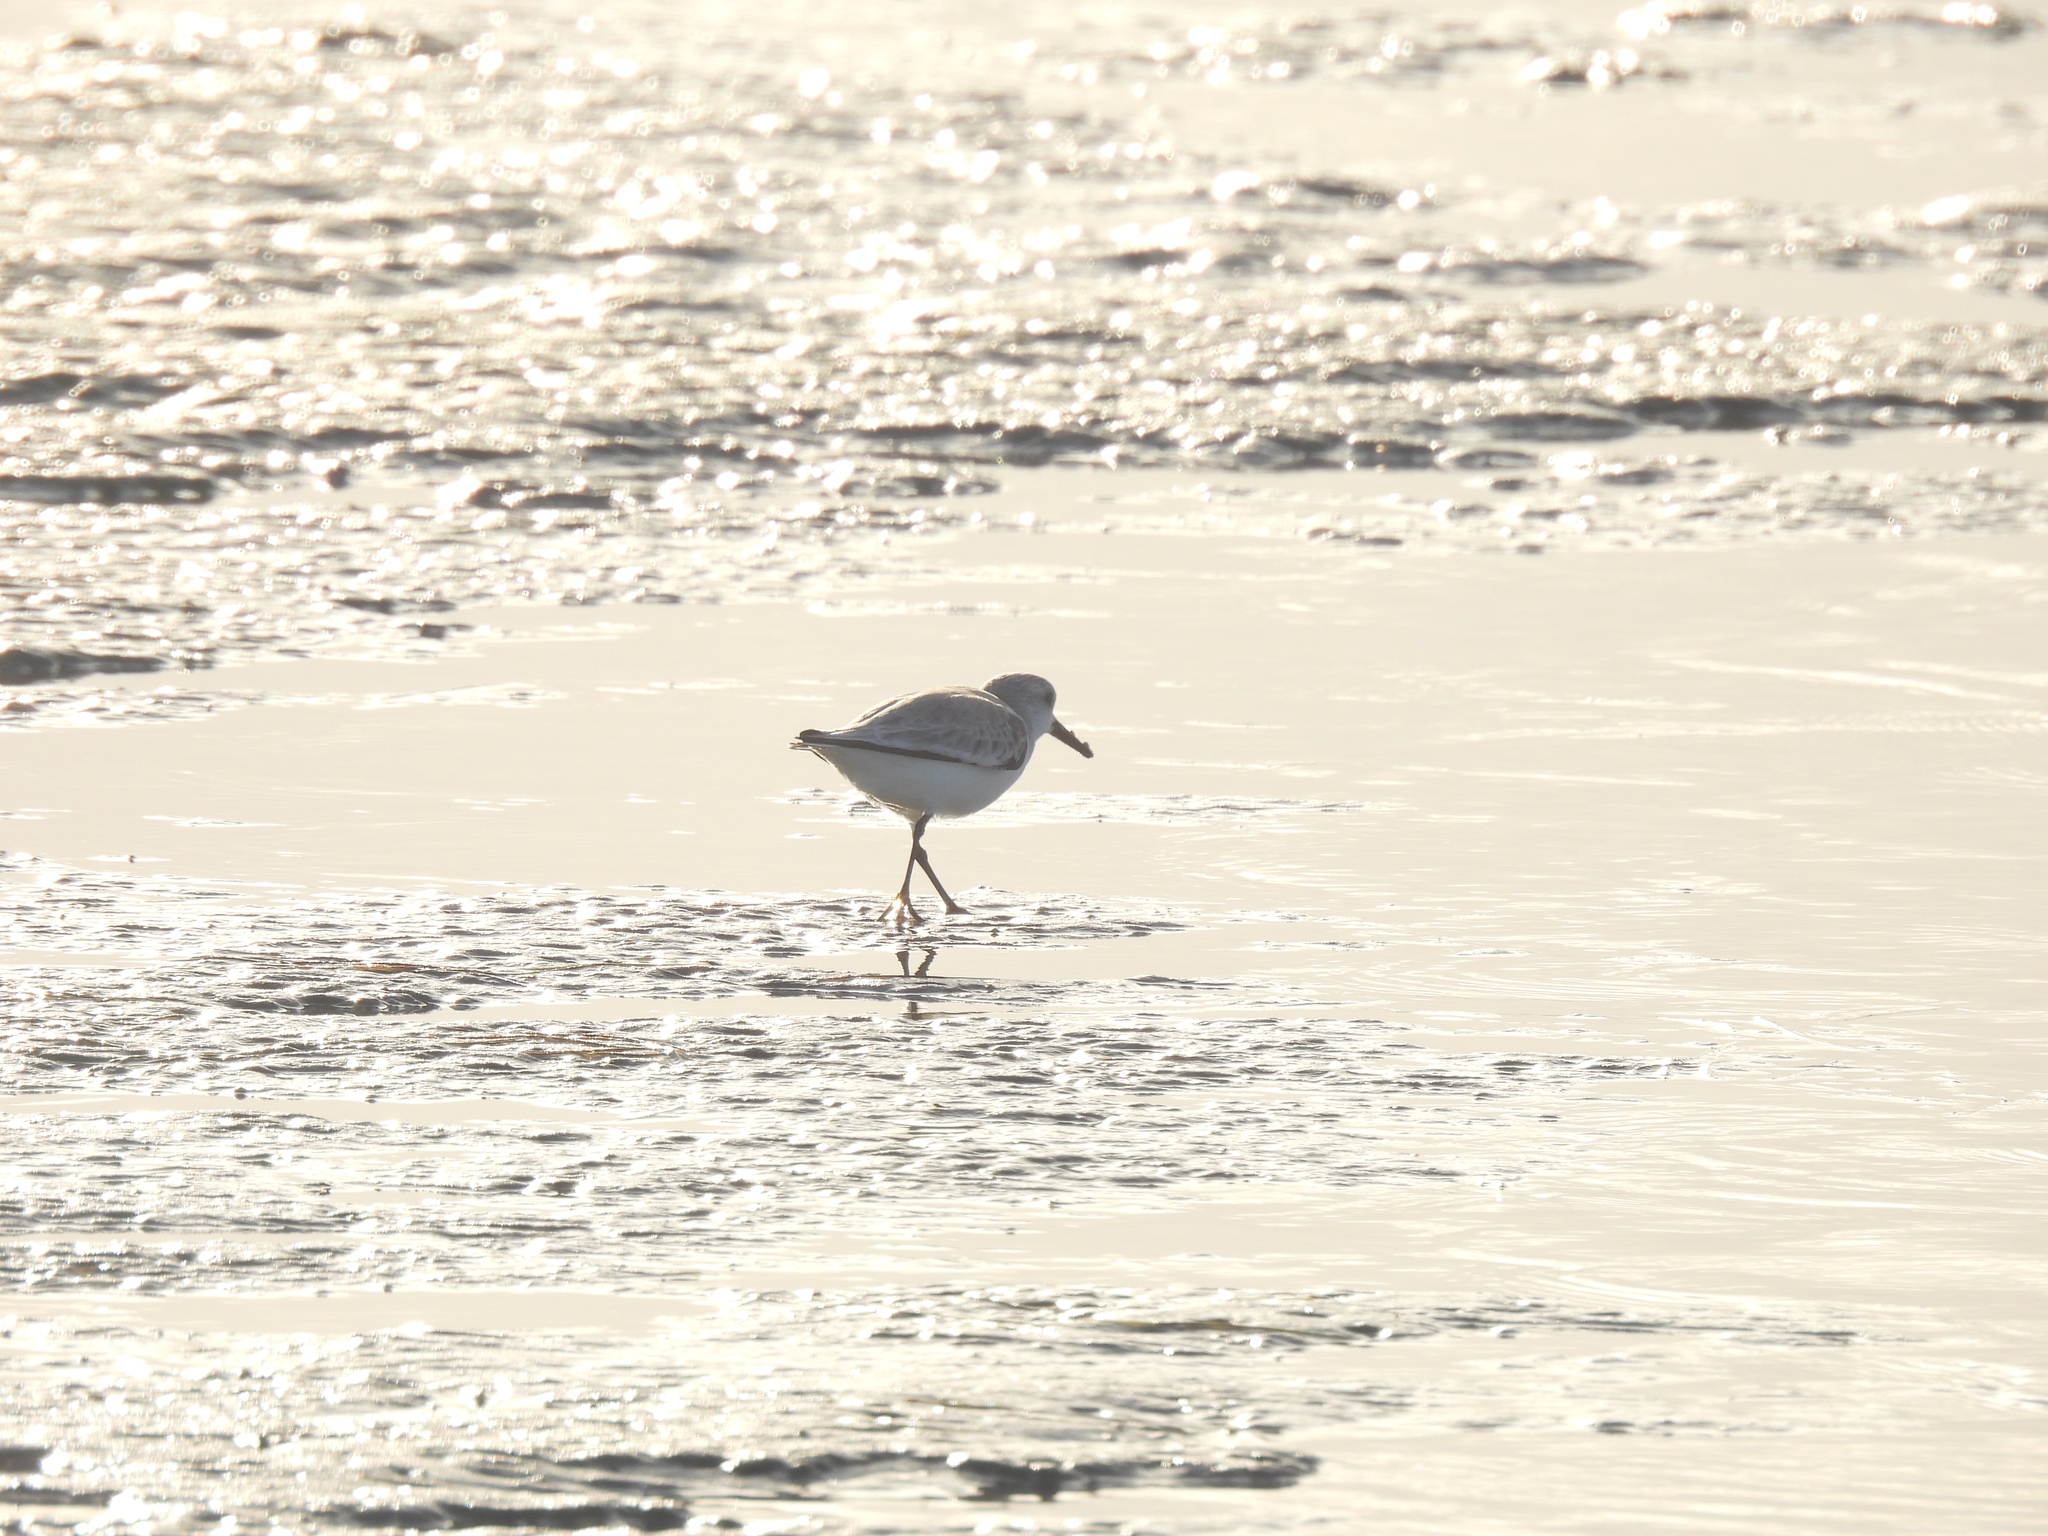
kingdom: Animalia
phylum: Chordata
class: Aves
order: Charadriiformes
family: Scolopacidae
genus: Calidris
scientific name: Calidris alba
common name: Sanderling
